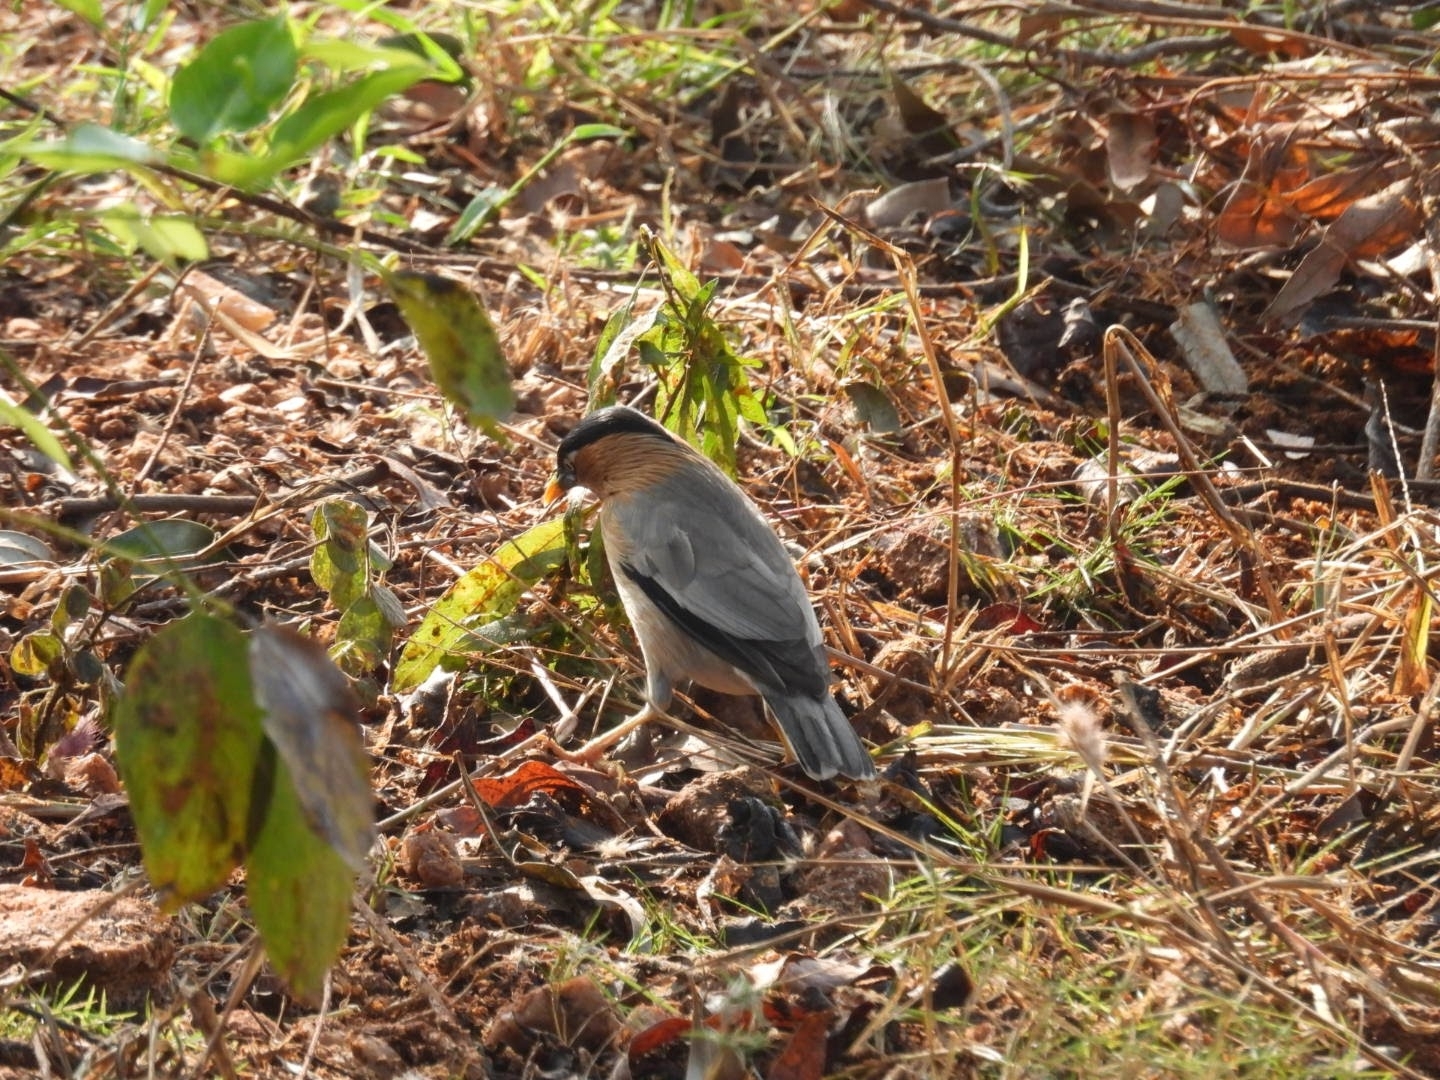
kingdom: Animalia
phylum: Chordata
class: Aves
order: Passeriformes
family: Sturnidae
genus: Sturnia
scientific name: Sturnia pagodarum
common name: Brahminy starling
